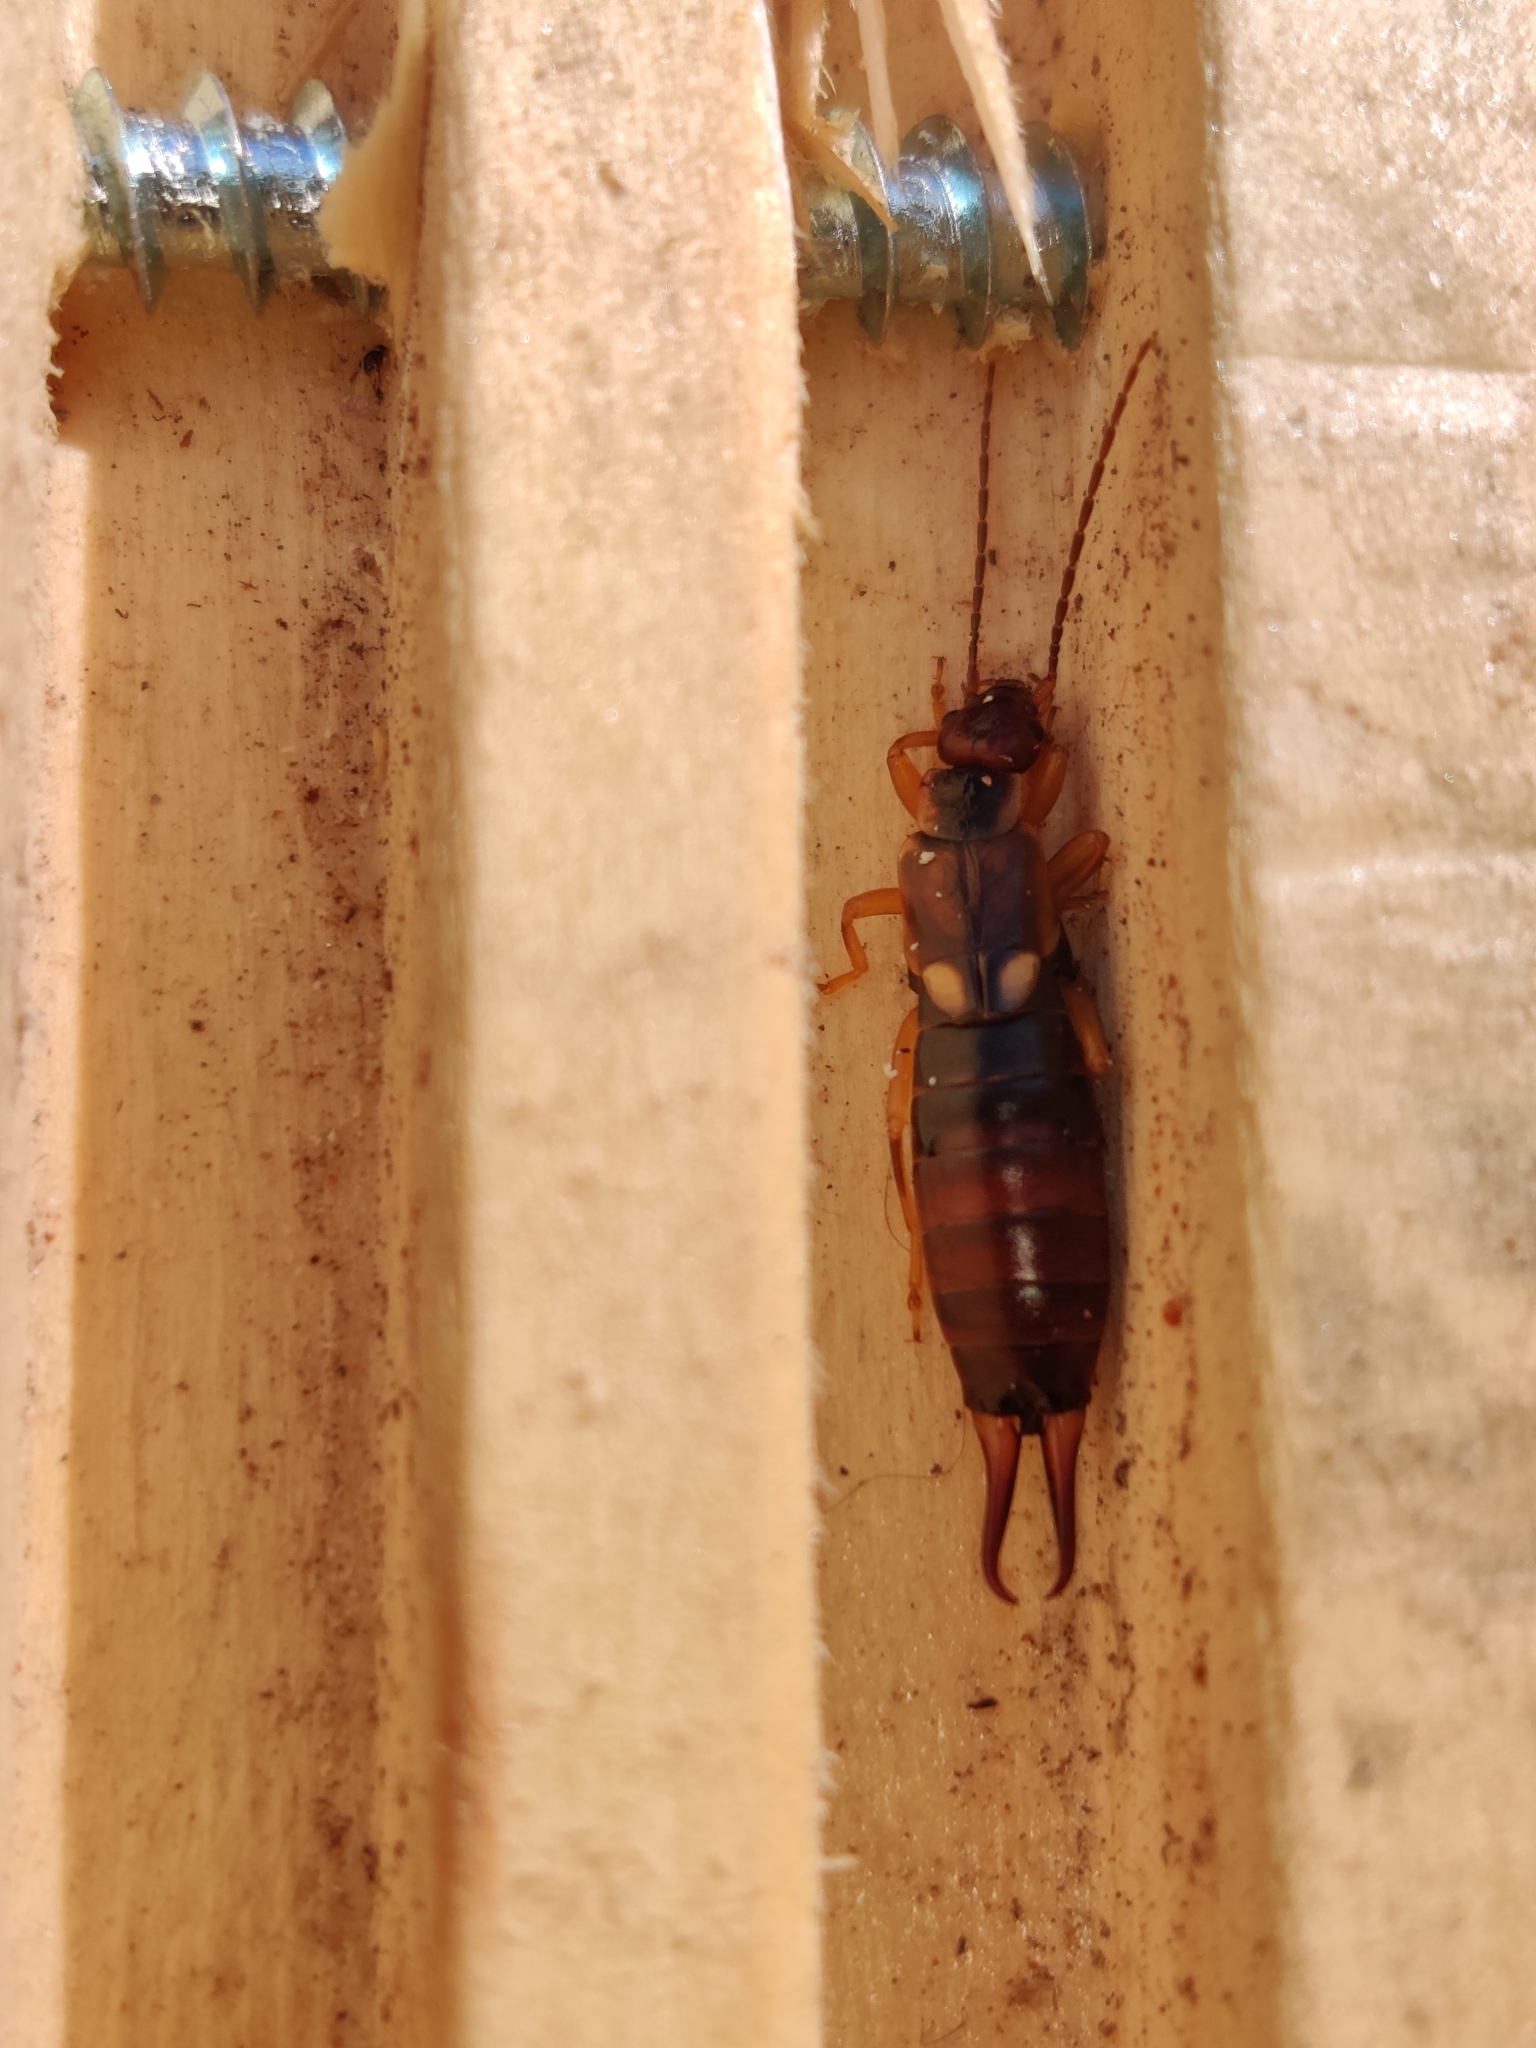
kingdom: Animalia
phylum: Arthropoda
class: Insecta
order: Dermaptera
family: Forficulidae
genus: Forficula
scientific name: Forficula
